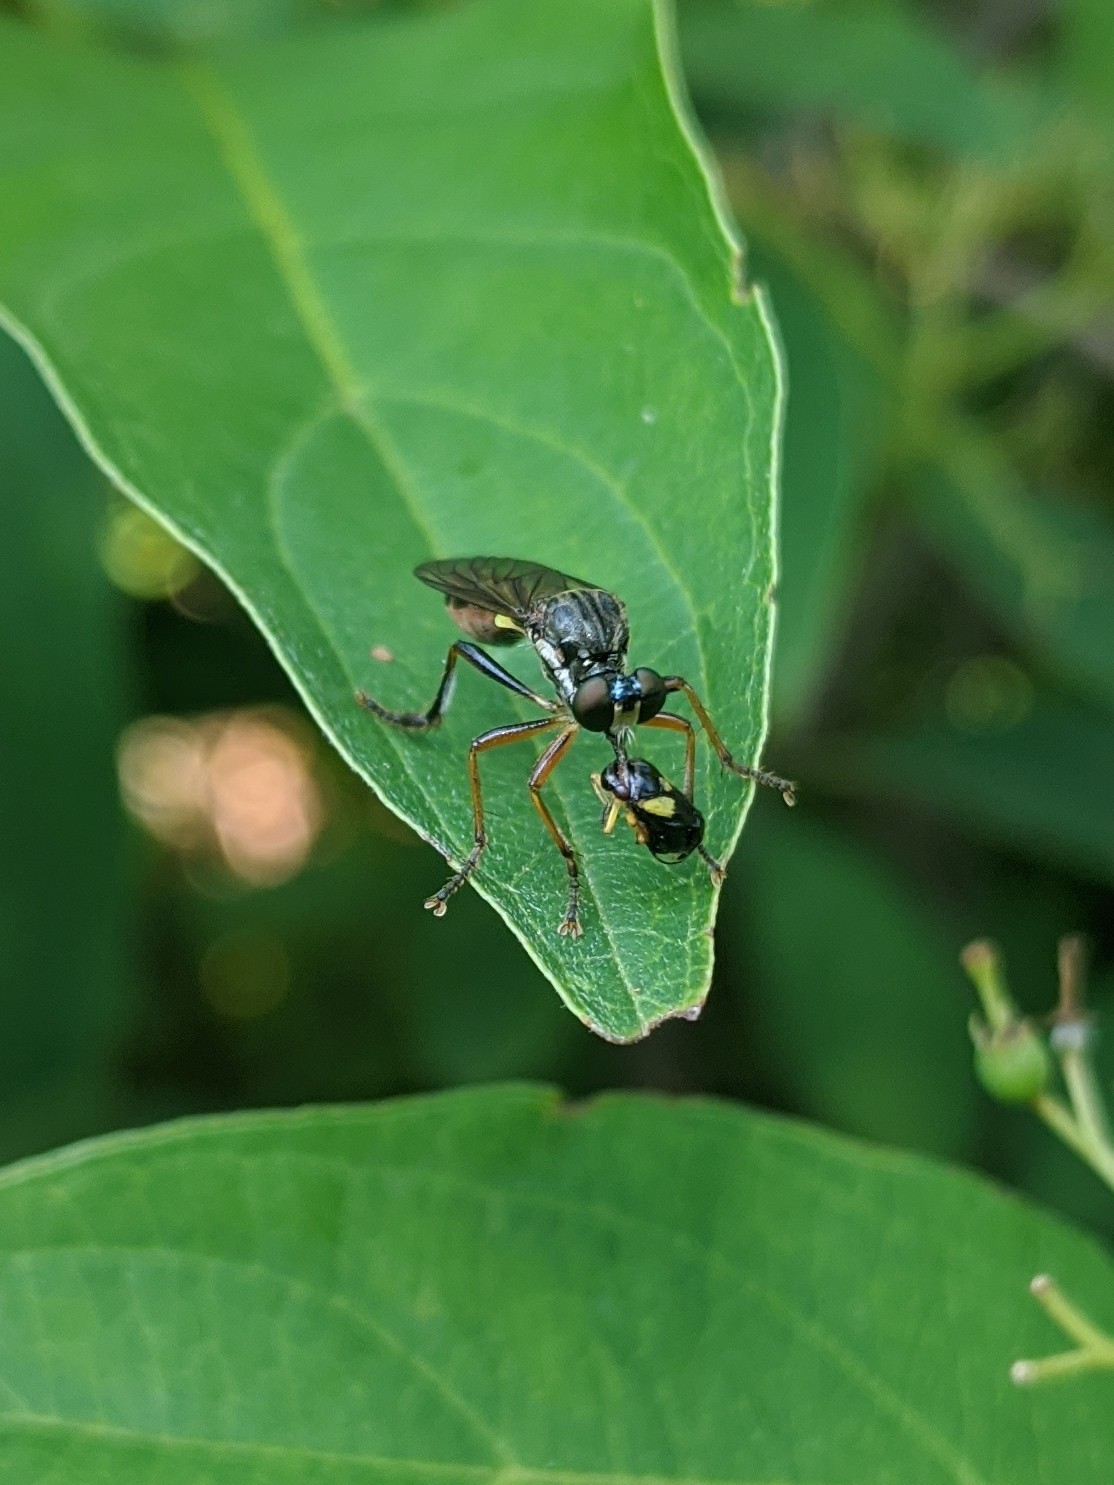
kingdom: Animalia
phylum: Arthropoda
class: Insecta
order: Diptera
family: Asilidae
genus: Dioctria
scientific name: Dioctria hyalipennis
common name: Stripe-legged robberfly
